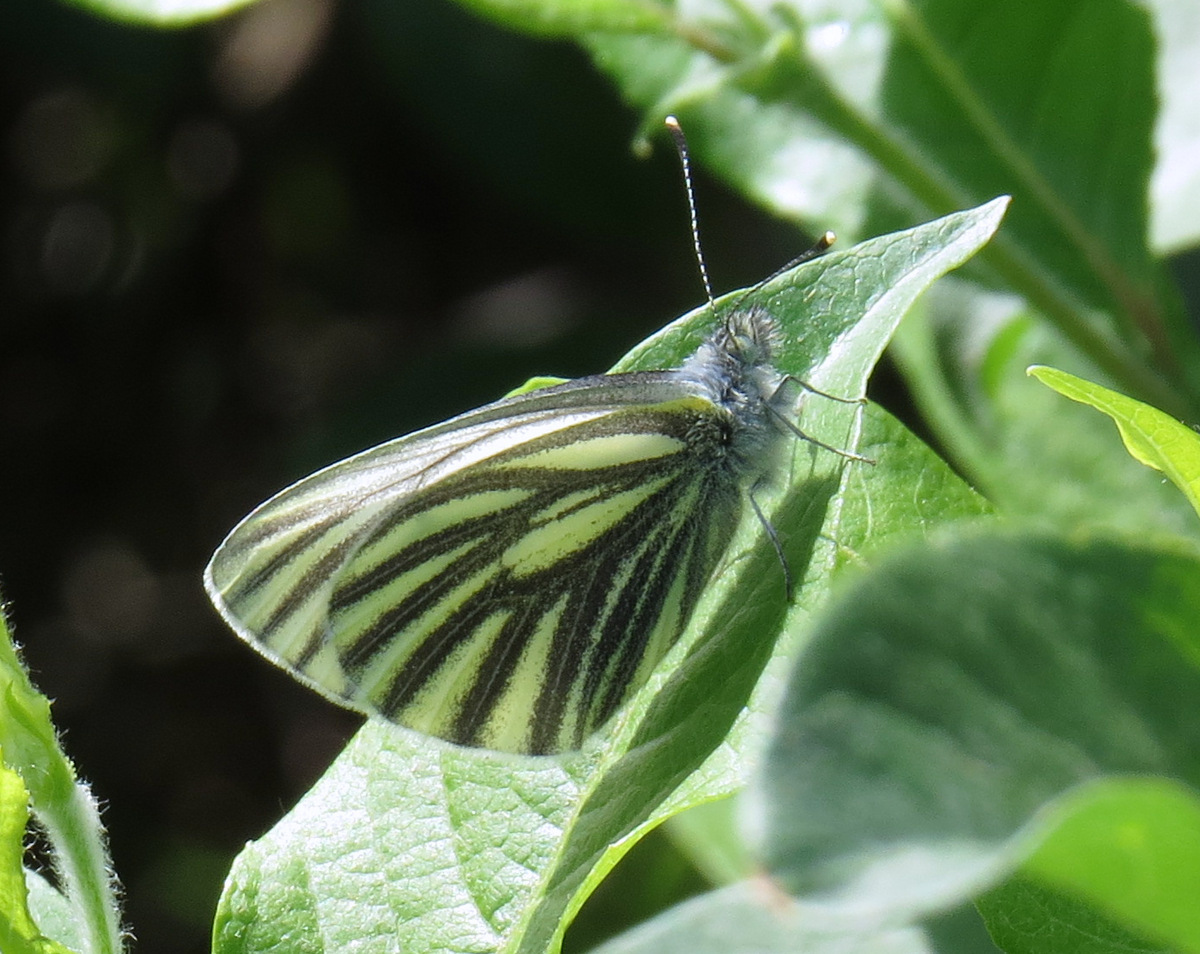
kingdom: Animalia
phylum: Arthropoda
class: Insecta
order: Lepidoptera
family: Pieridae
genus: Pieris
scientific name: Pieris angelika
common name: Arctic white
